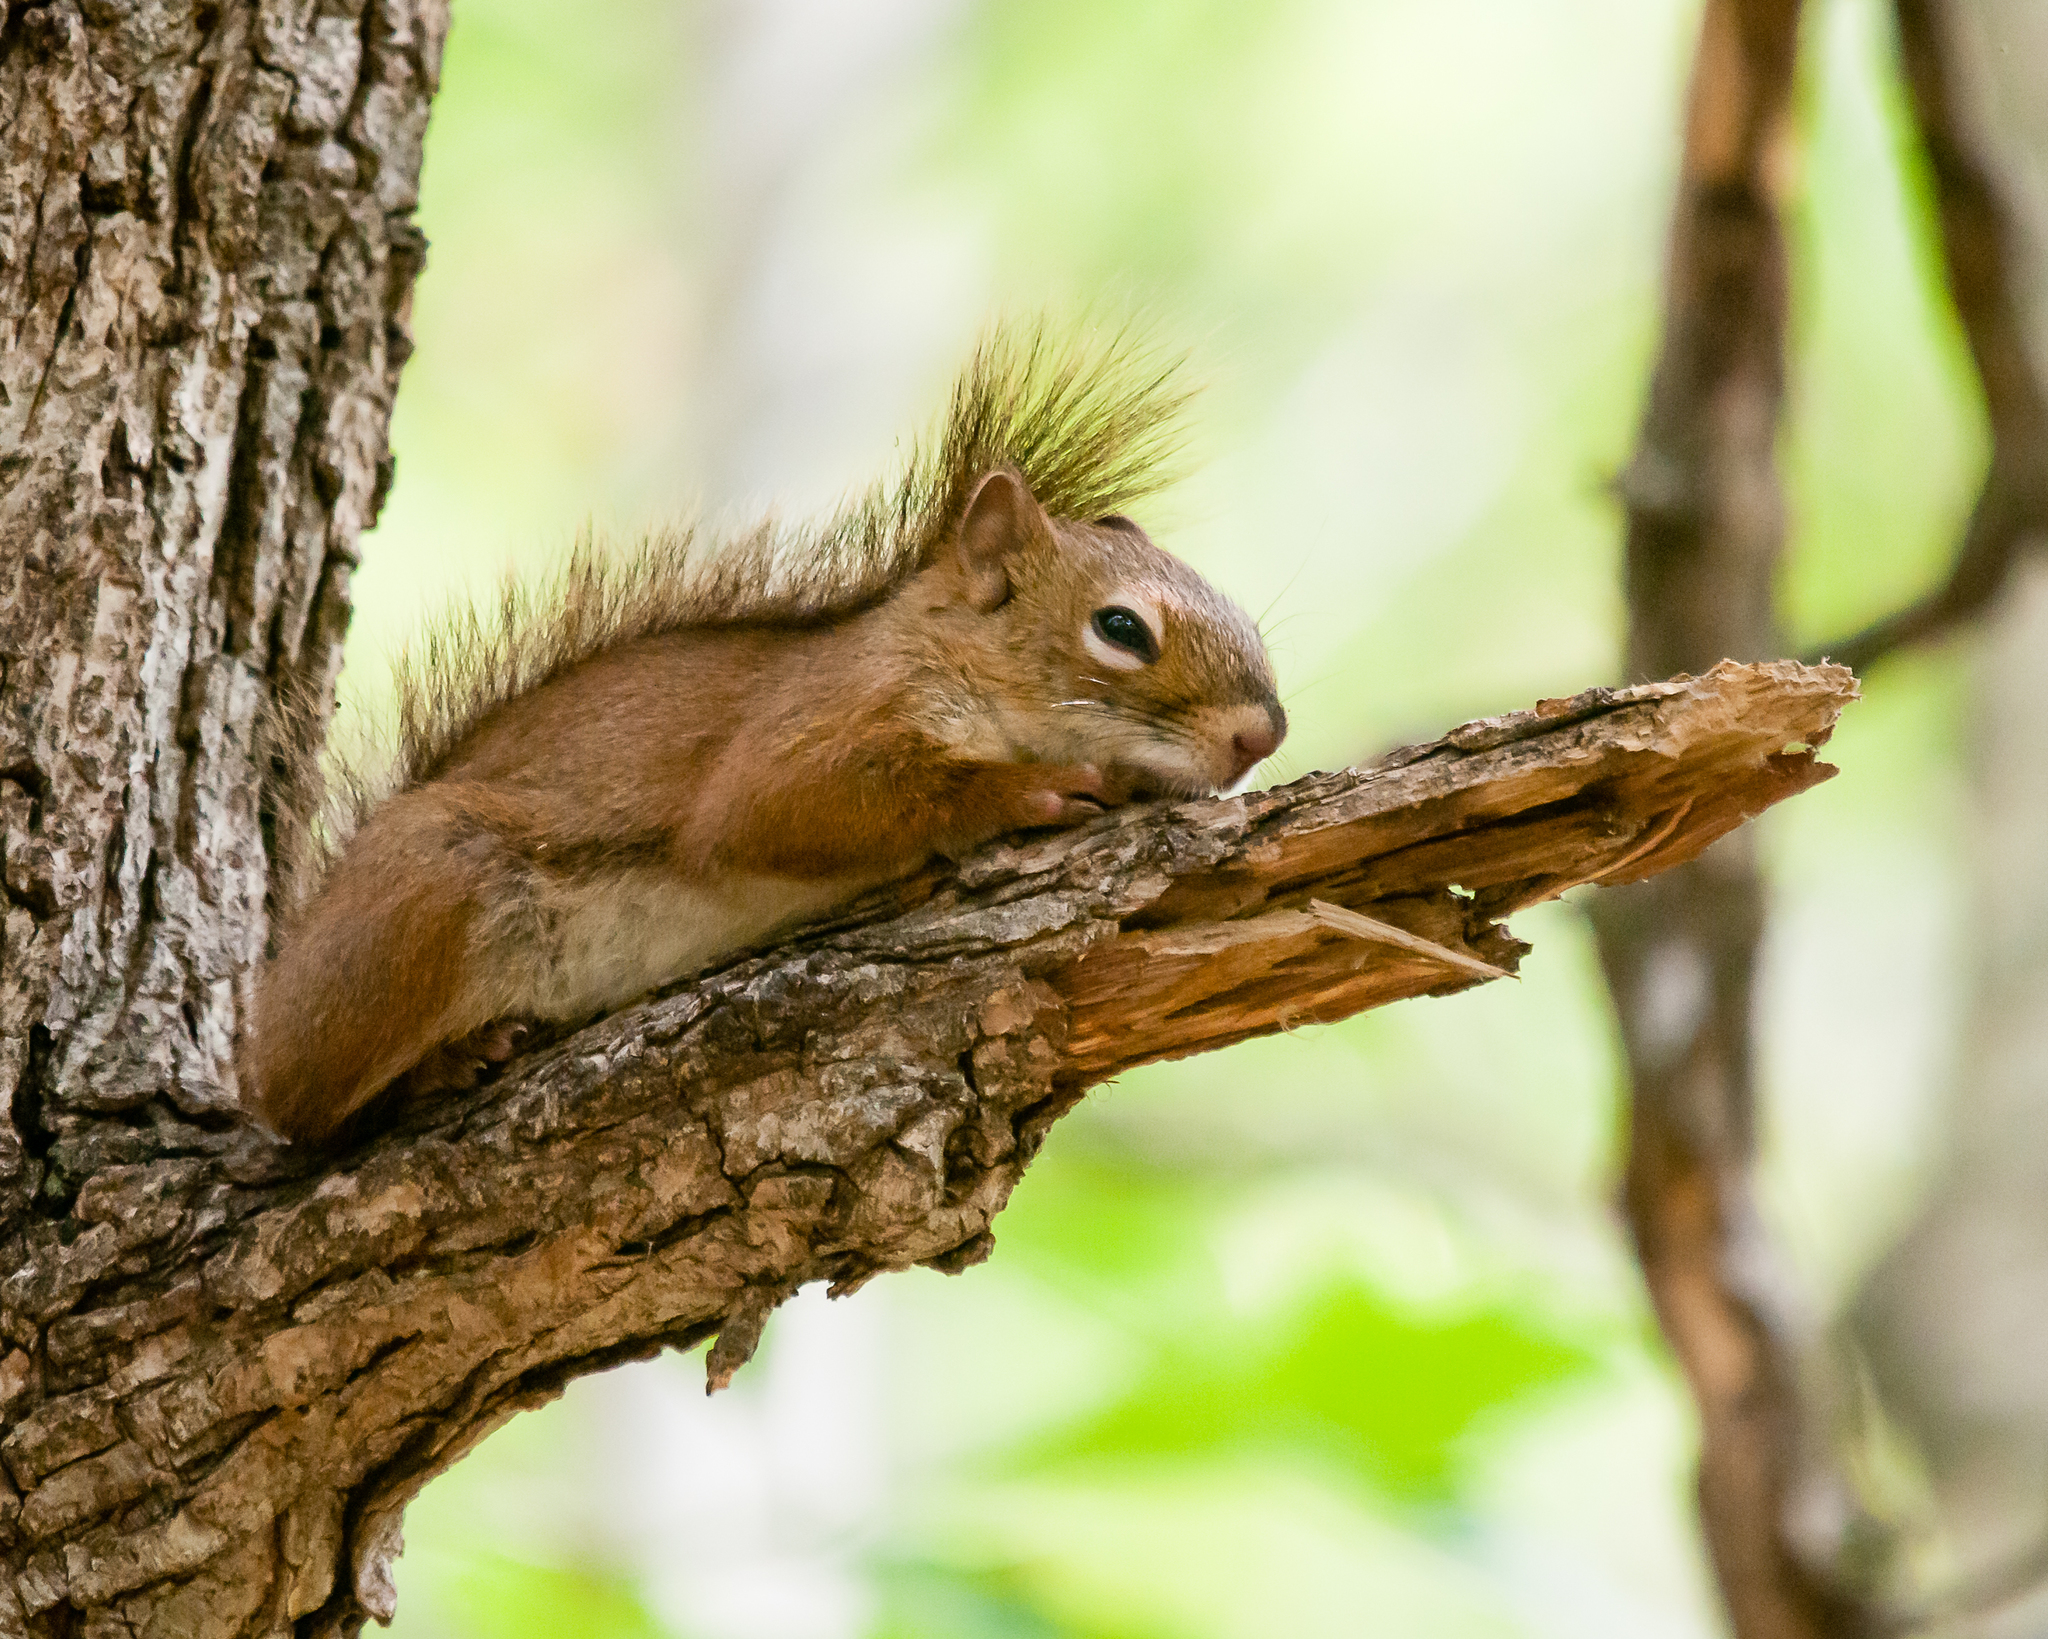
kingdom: Animalia
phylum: Chordata
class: Mammalia
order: Rodentia
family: Sciuridae
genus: Tamiasciurus
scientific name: Tamiasciurus hudsonicus
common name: Red squirrel
